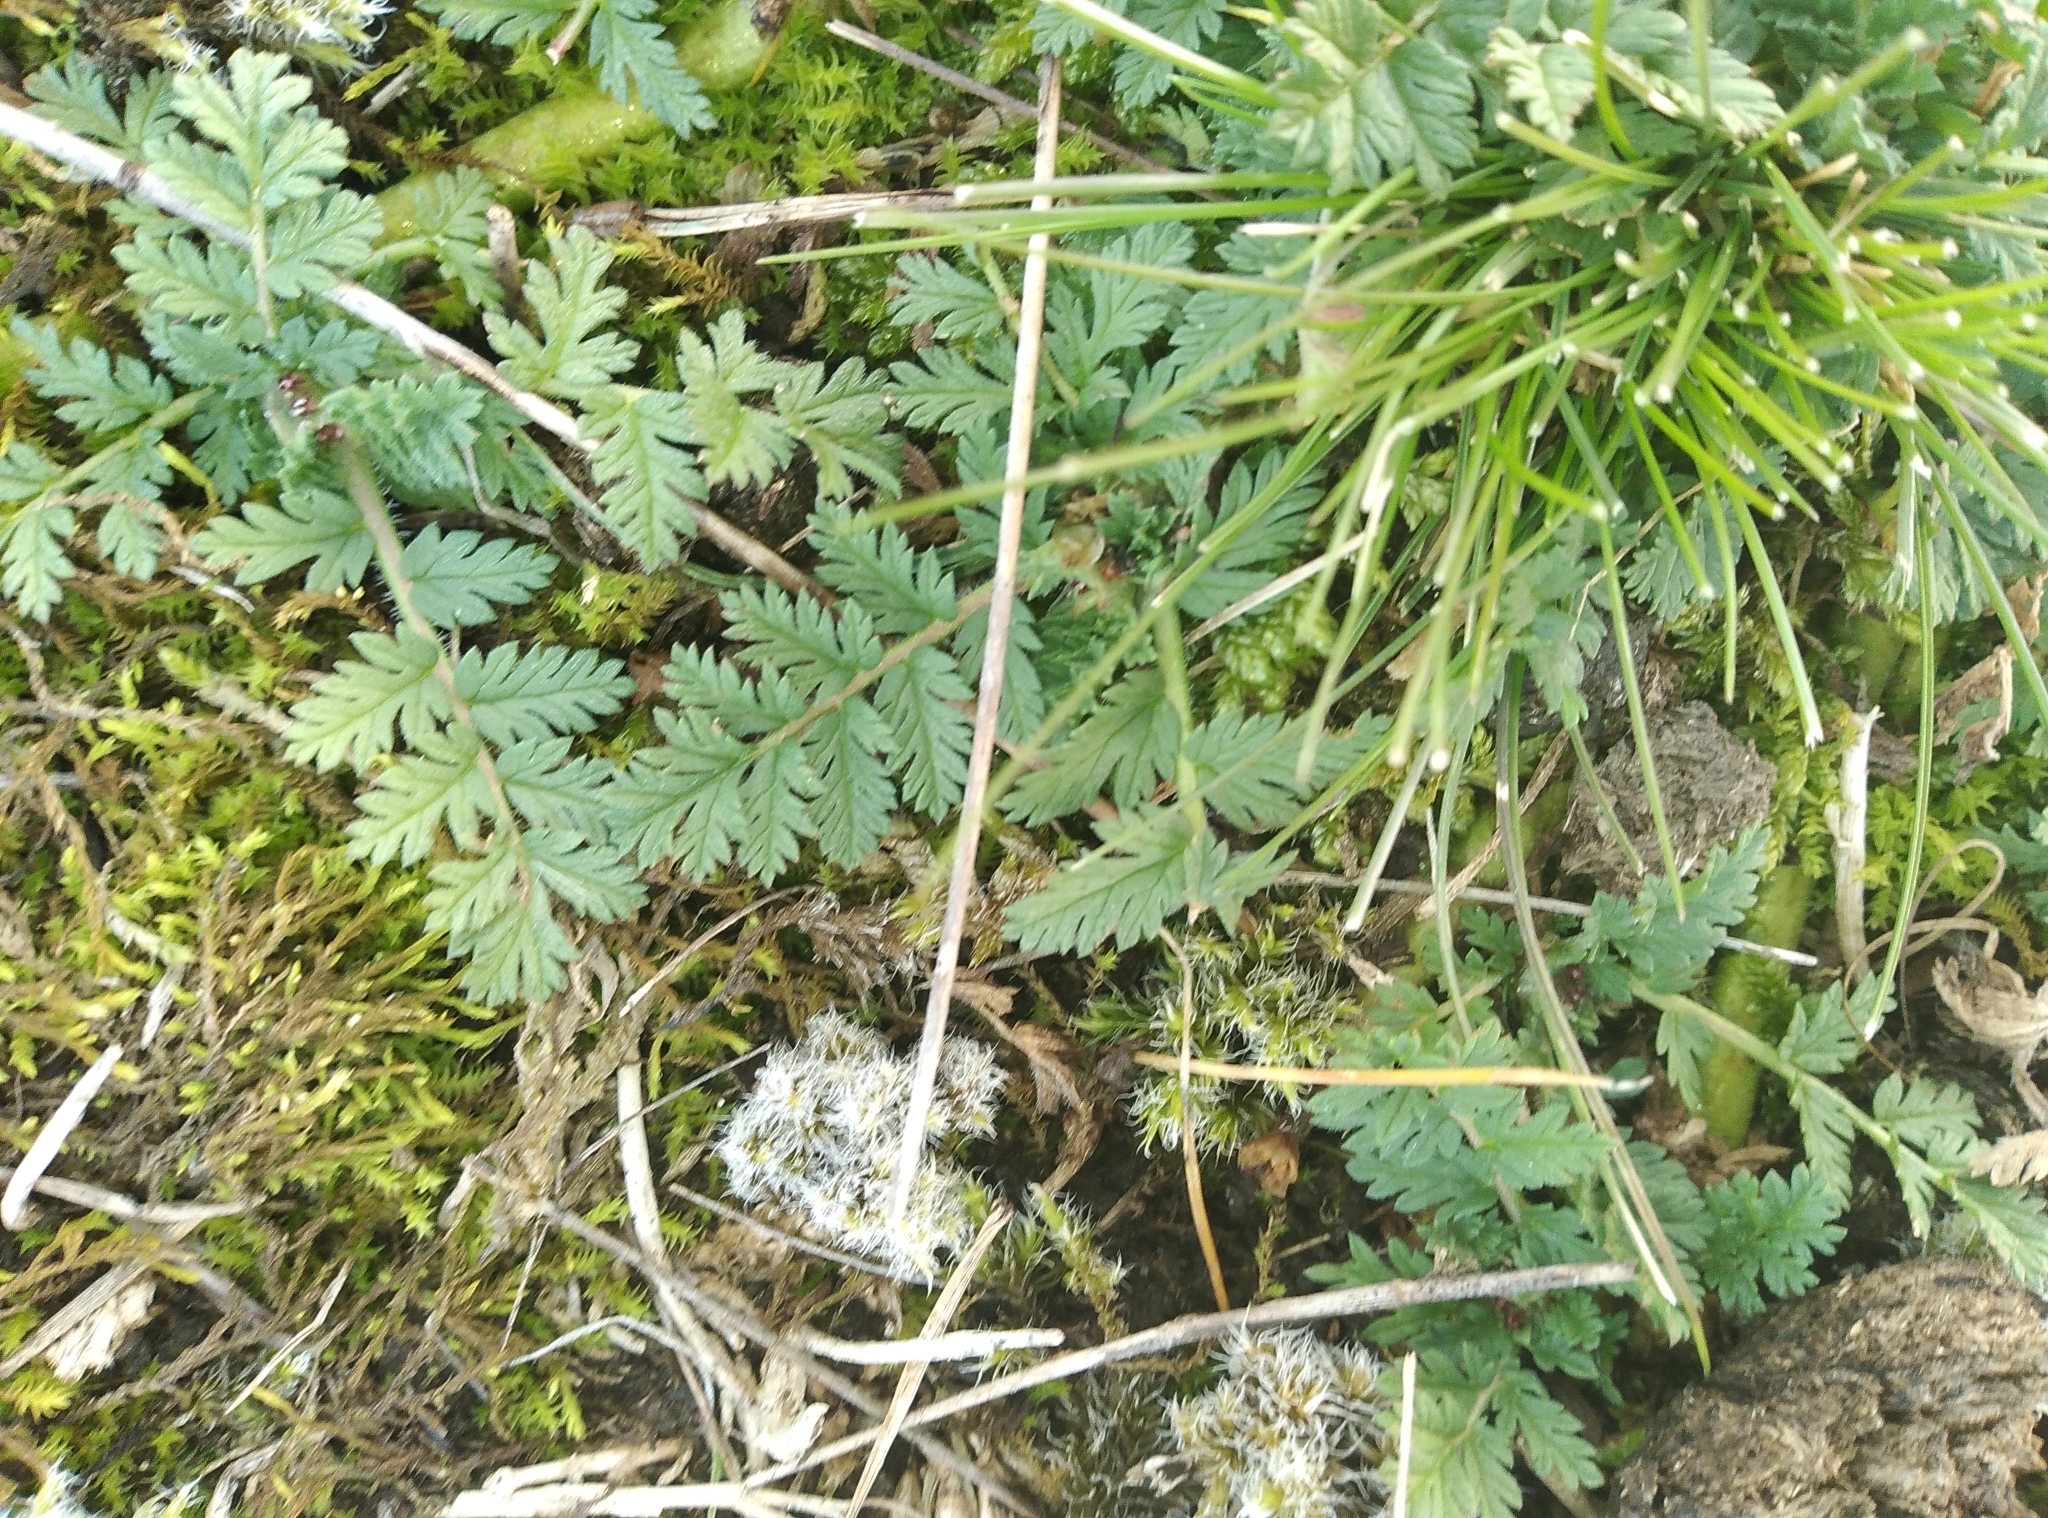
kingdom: Plantae
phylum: Tracheophyta
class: Magnoliopsida
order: Geraniales
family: Geraniaceae
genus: Erodium
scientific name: Erodium cicutarium
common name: Common stork's-bill
